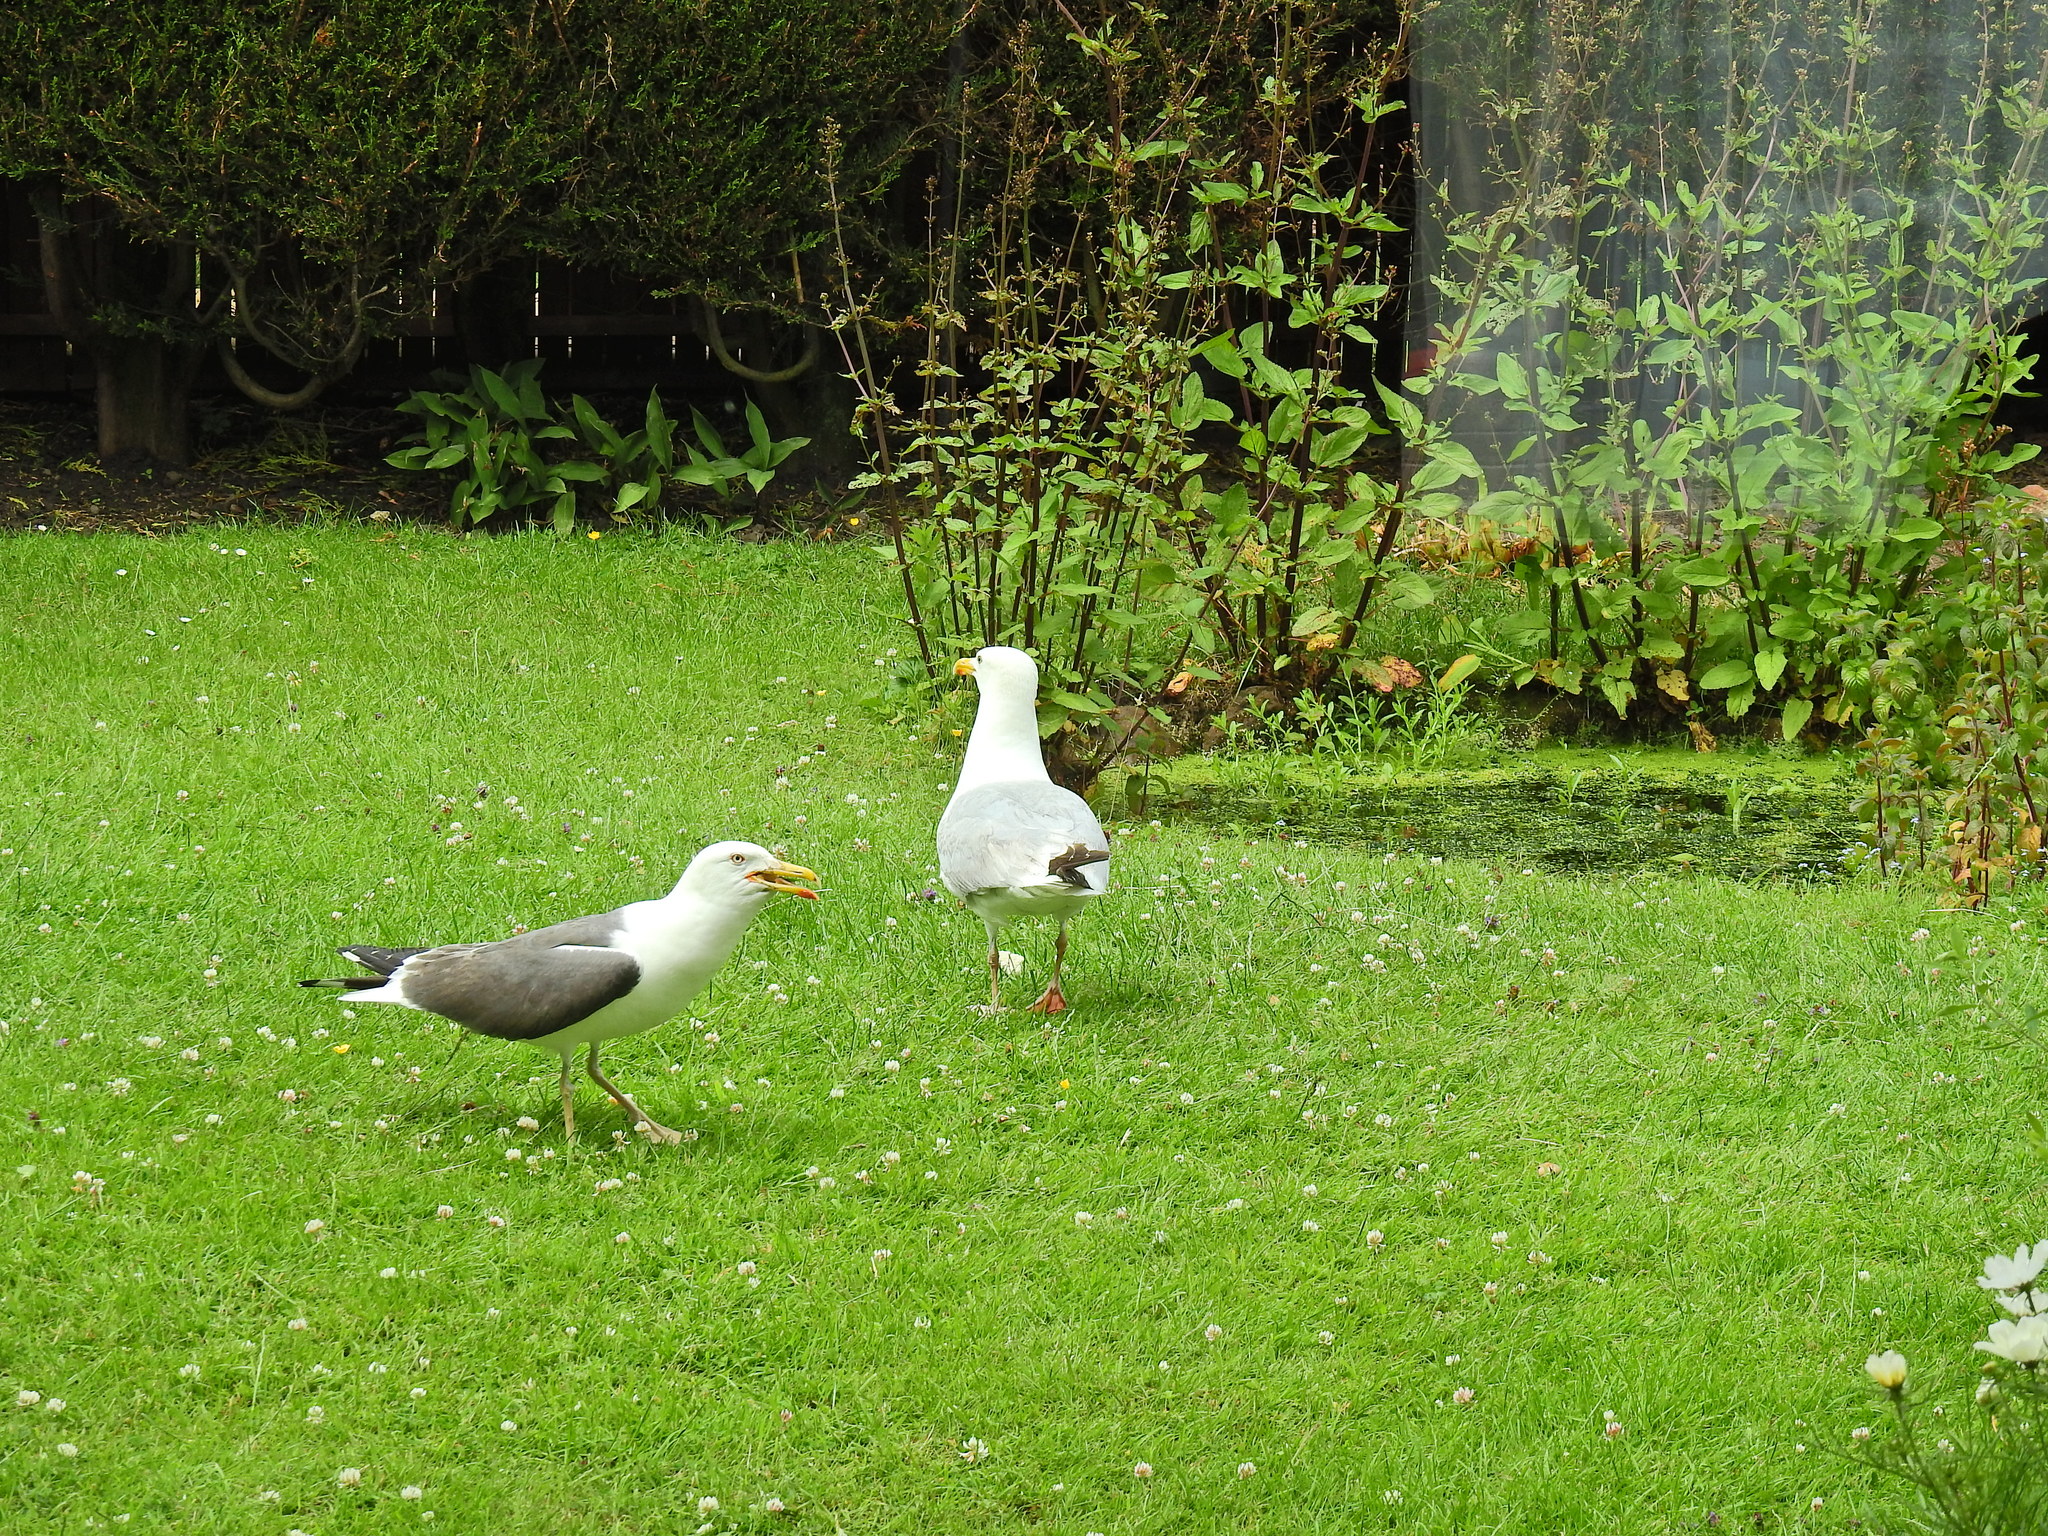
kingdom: Animalia
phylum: Chordata
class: Aves
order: Charadriiformes
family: Laridae
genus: Larus
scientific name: Larus argentatus
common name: Herring gull
